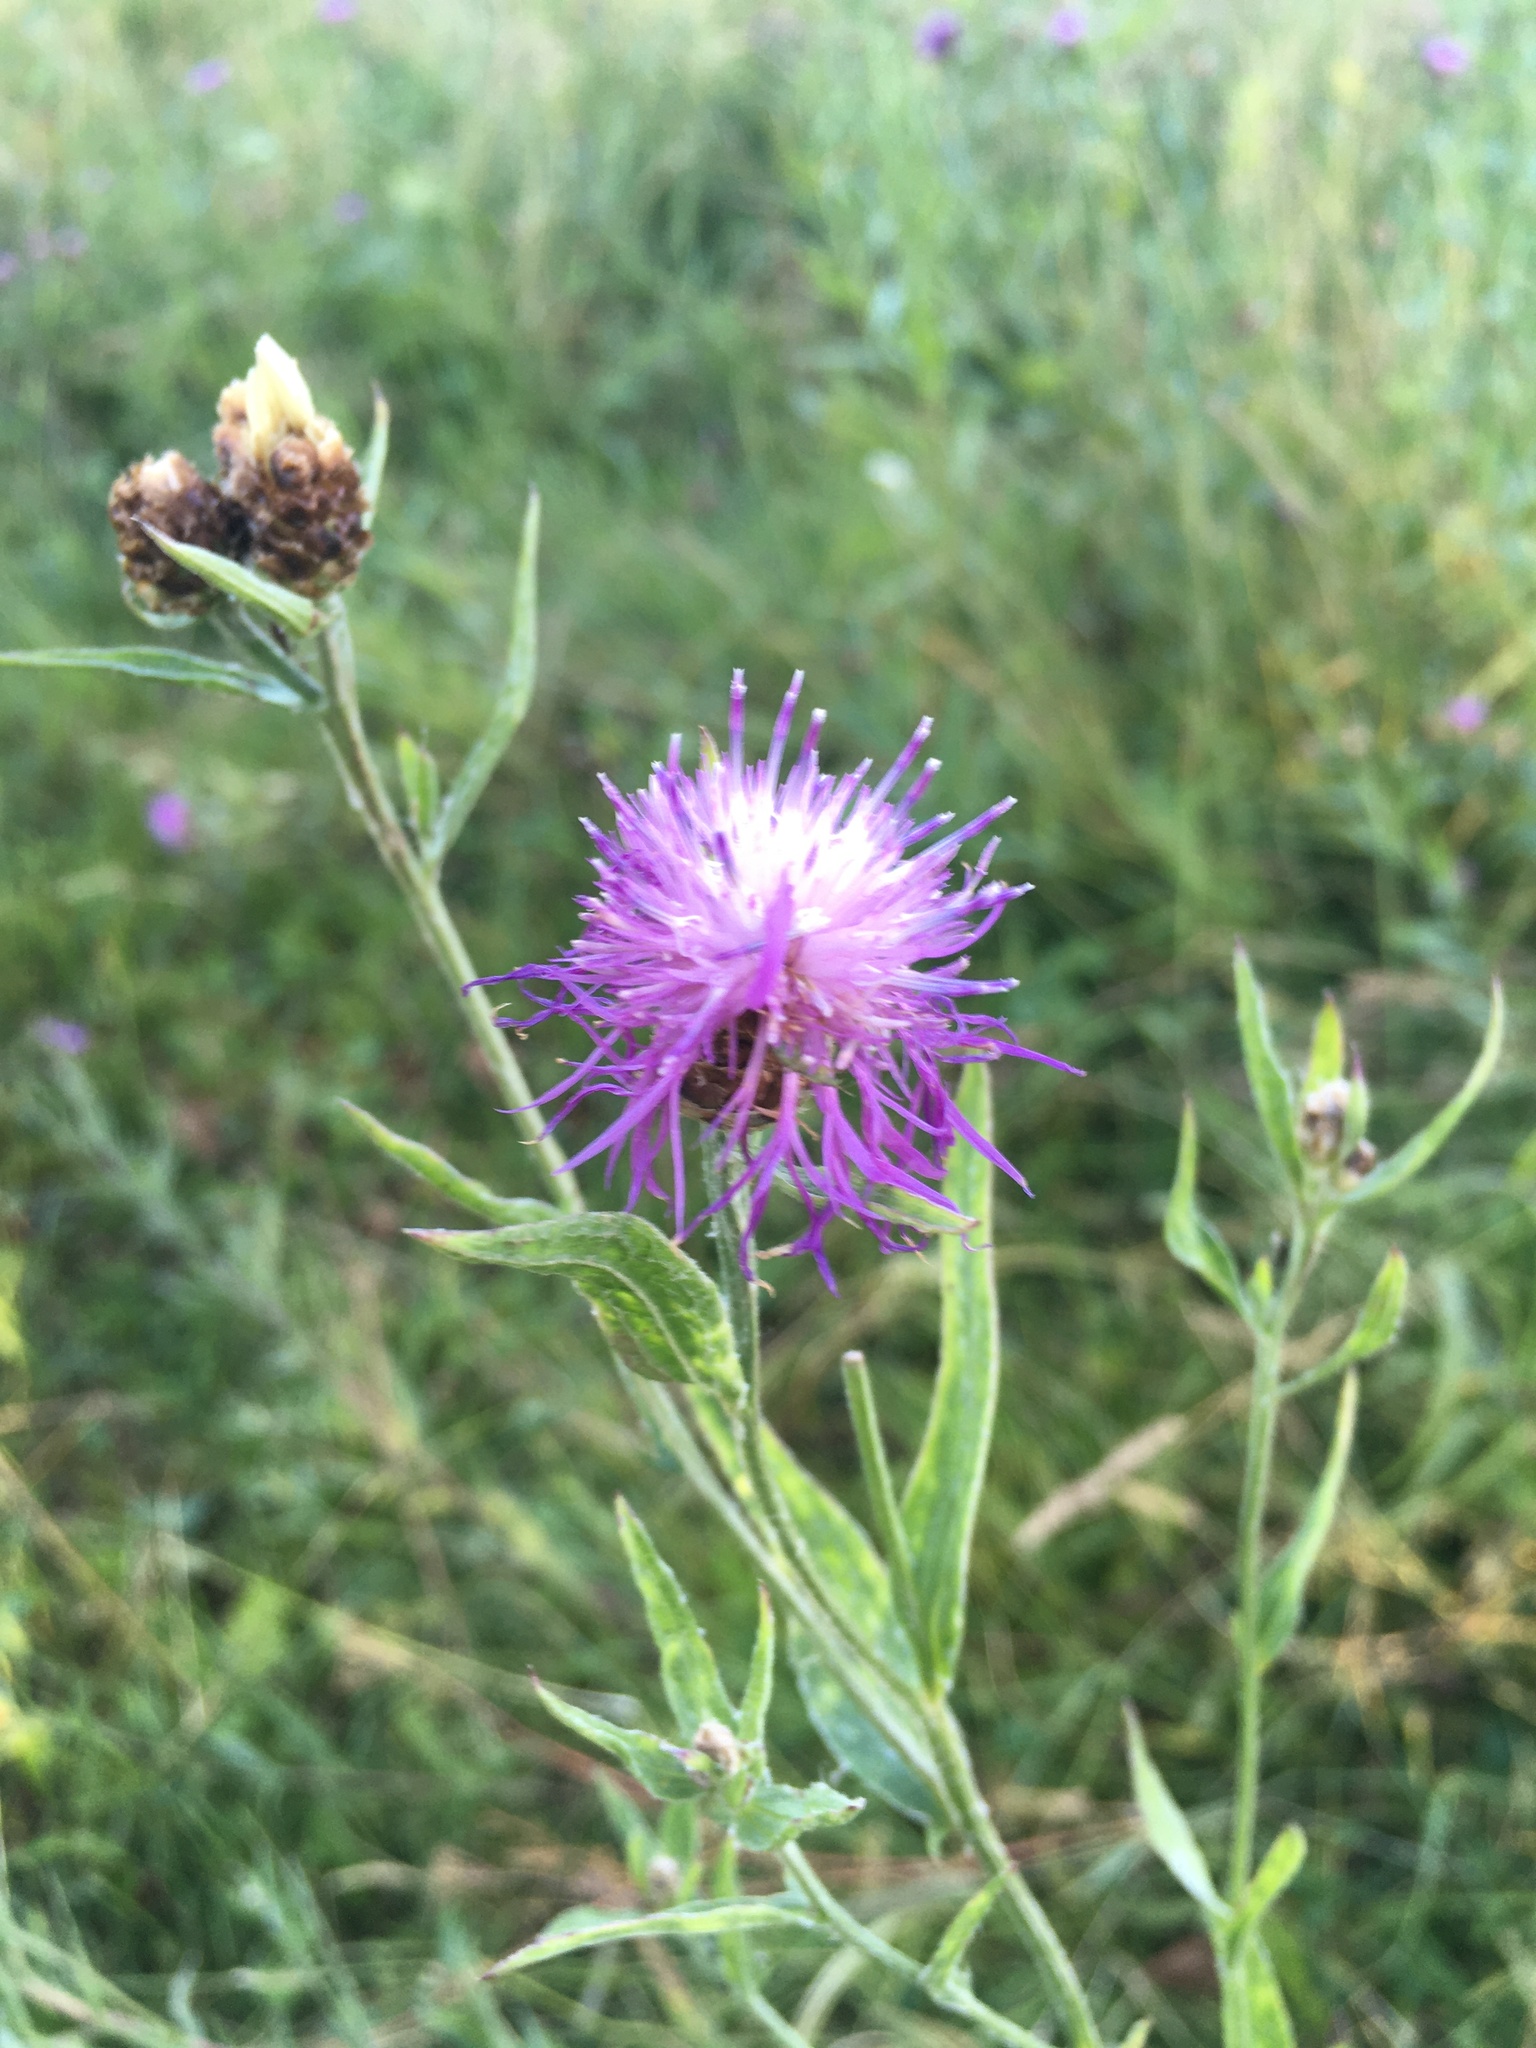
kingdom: Plantae
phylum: Tracheophyta
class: Magnoliopsida
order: Asterales
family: Asteraceae
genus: Centaurea
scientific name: Centaurea jacea
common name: Brown knapweed
